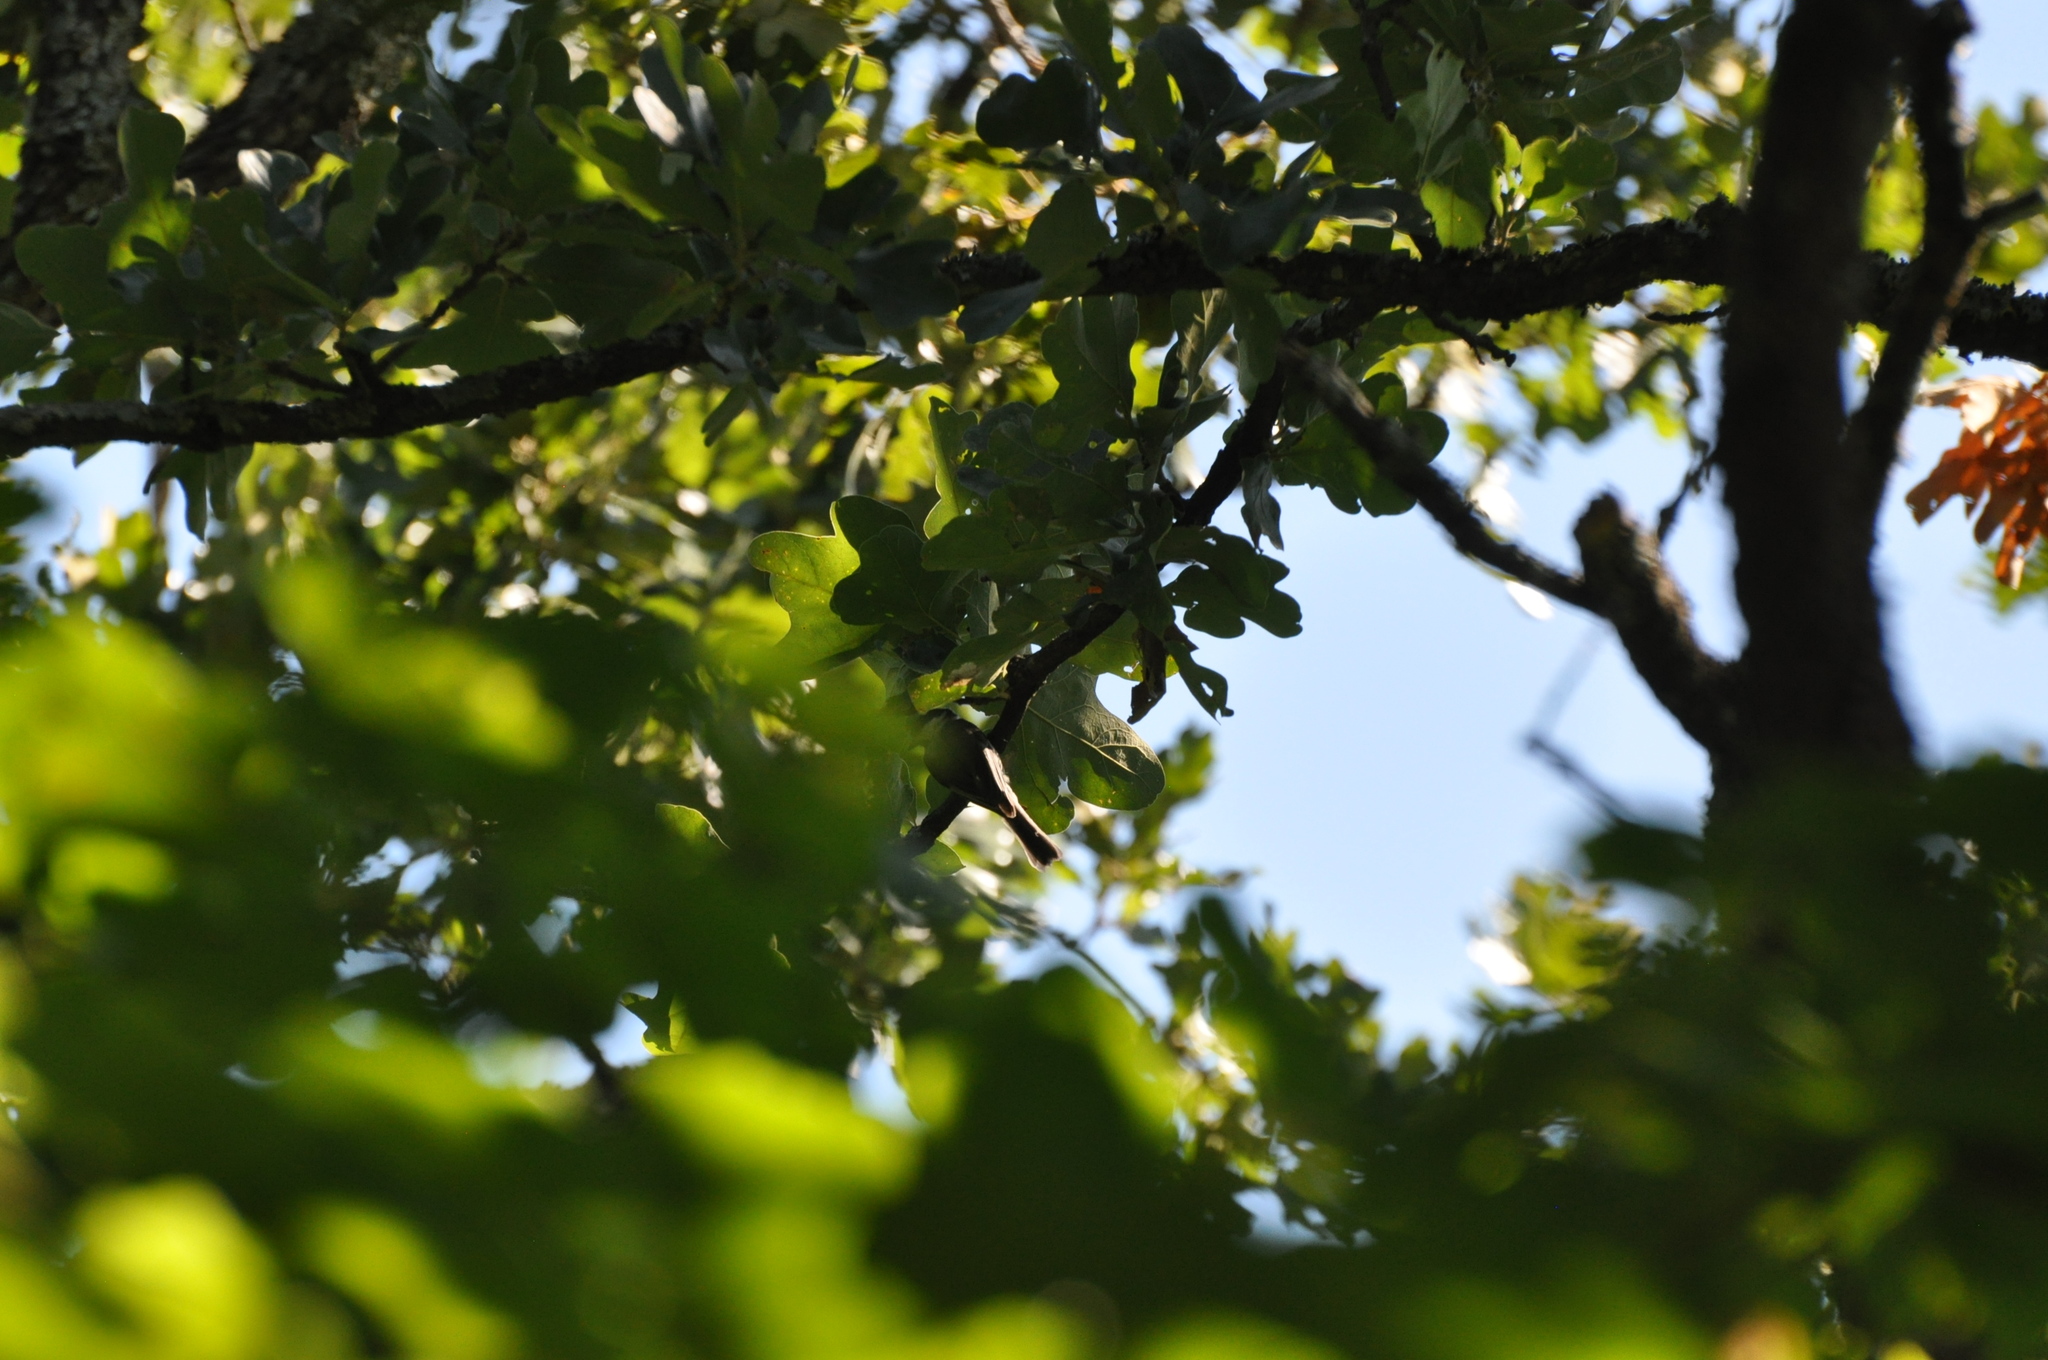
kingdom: Animalia
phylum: Chordata
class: Aves
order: Passeriformes
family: Paridae
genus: Poecile
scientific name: Poecile carolinensis
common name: Carolina chickadee
